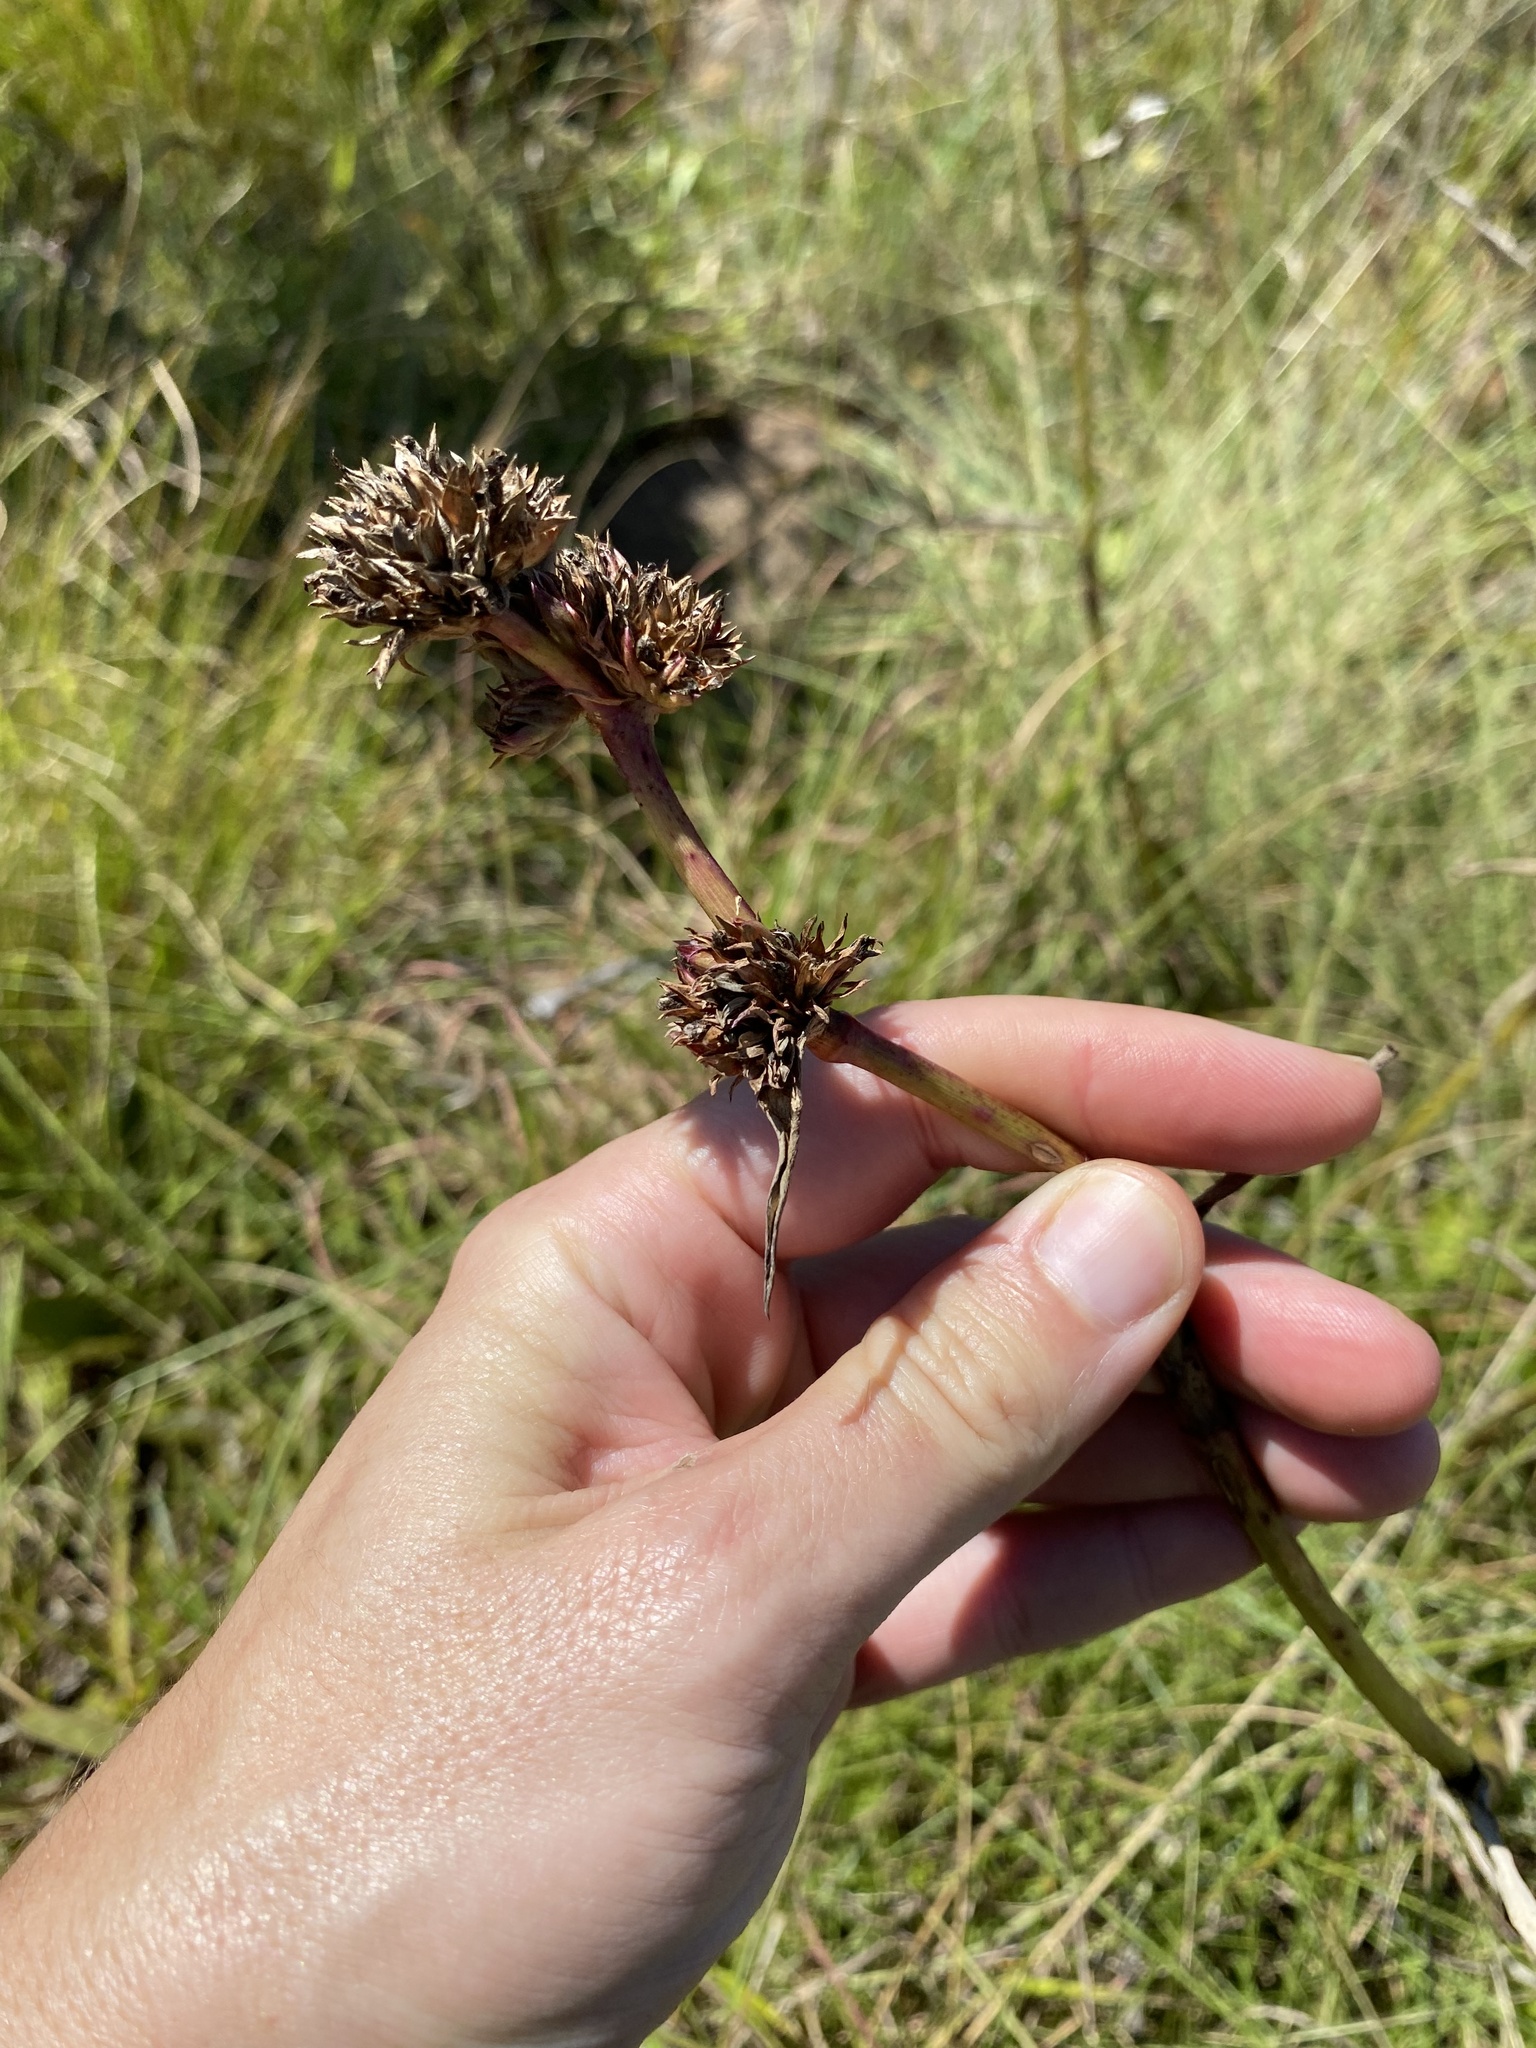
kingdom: Plantae
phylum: Tracheophyta
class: Liliopsida
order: Commelinales
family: Commelinaceae
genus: Cyanotis
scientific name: Cyanotis speciosa
